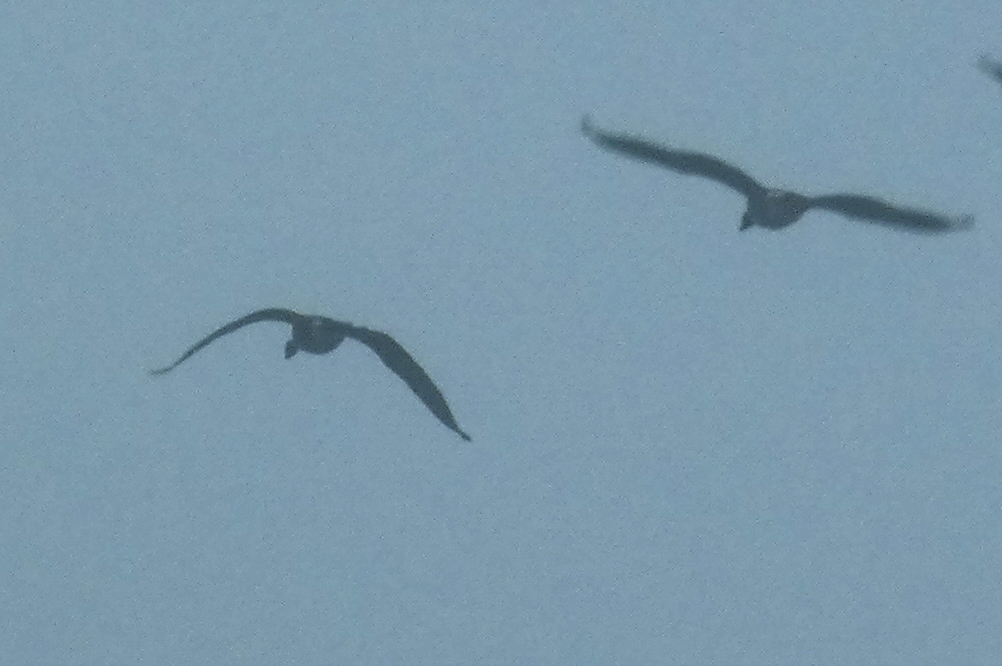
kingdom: Animalia
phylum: Chordata
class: Aves
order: Anseriformes
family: Anatidae
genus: Branta
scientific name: Branta canadensis
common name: Canada goose
